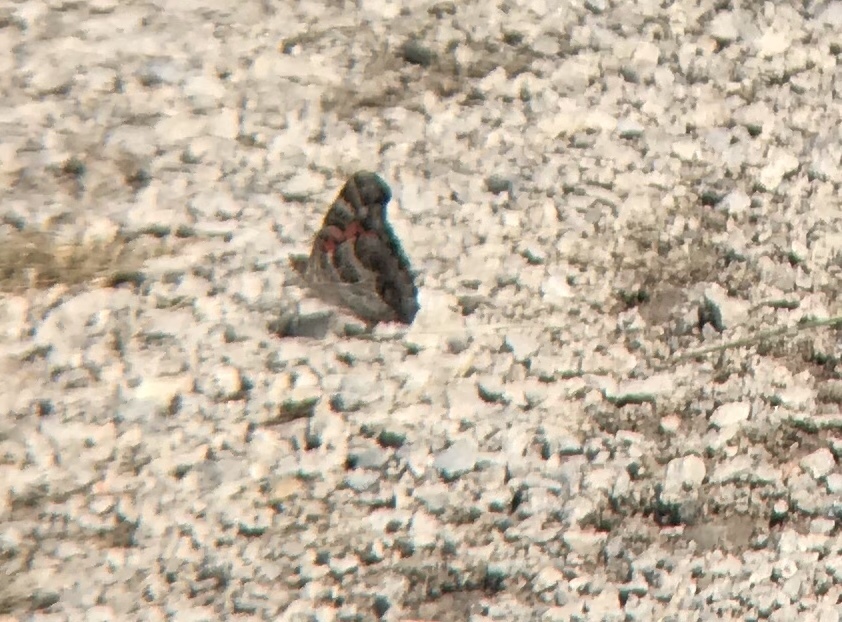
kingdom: Animalia
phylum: Arthropoda
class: Insecta
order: Lepidoptera
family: Nymphalidae
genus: Vanessa
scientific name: Vanessa virginiensis
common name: American lady
